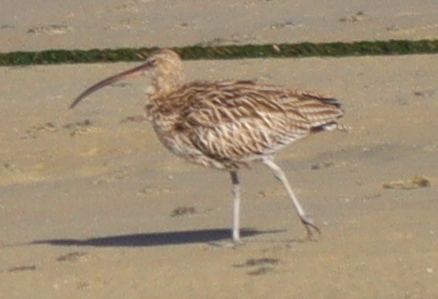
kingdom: Animalia
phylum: Chordata
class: Aves
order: Charadriiformes
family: Scolopacidae
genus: Numenius
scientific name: Numenius arquata
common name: Eurasian curlew
